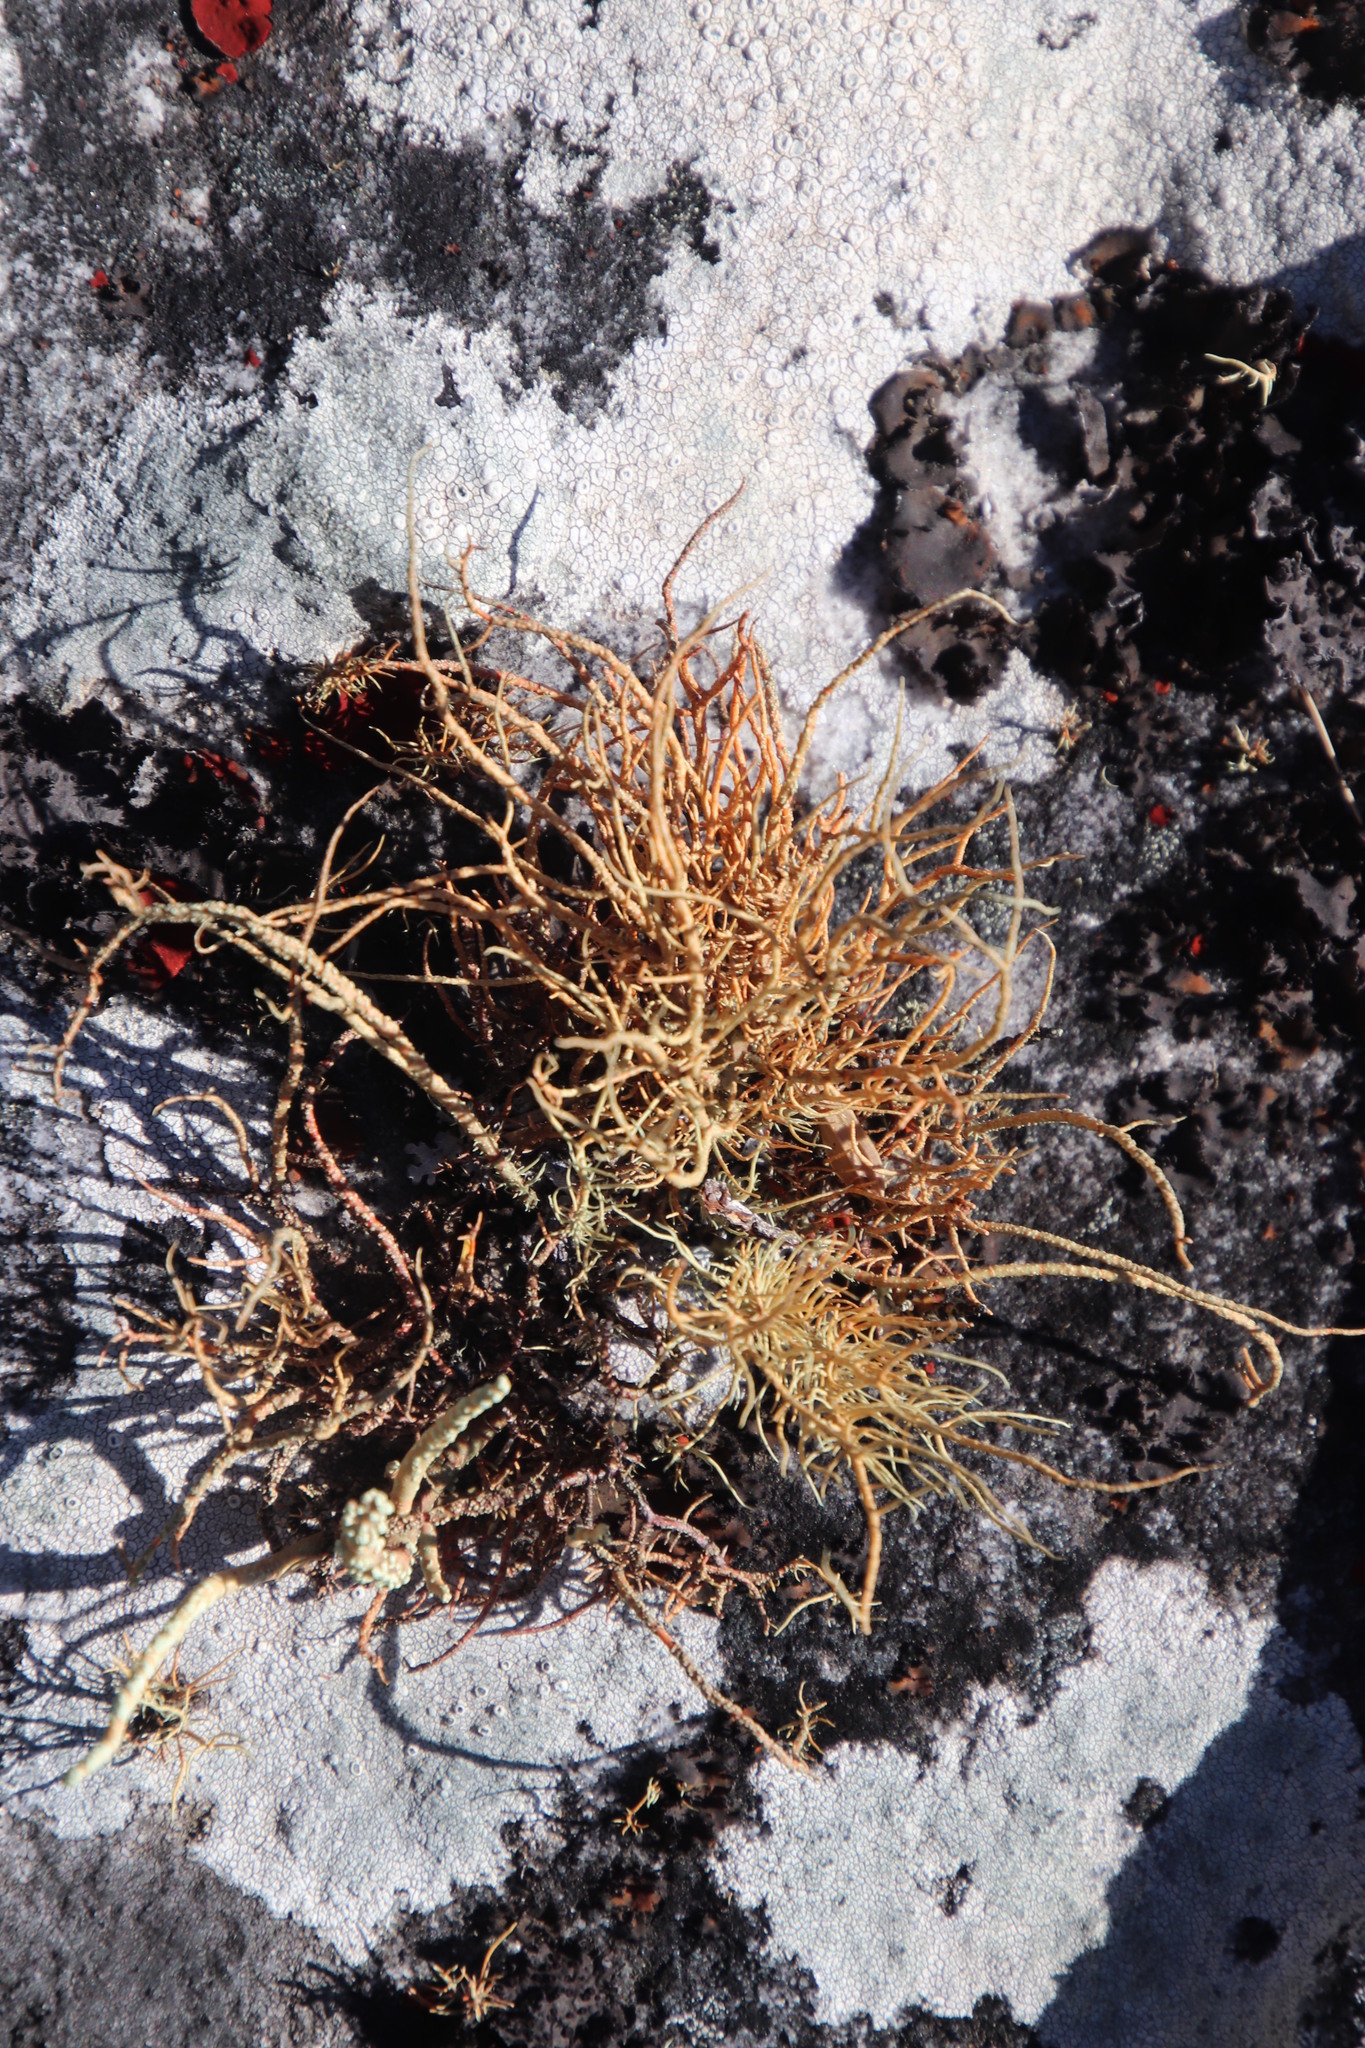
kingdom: Fungi
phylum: Ascomycota
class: Lecanoromycetes
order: Lecanorales
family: Parmeliaceae
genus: Usnea
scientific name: Usnea maculata
